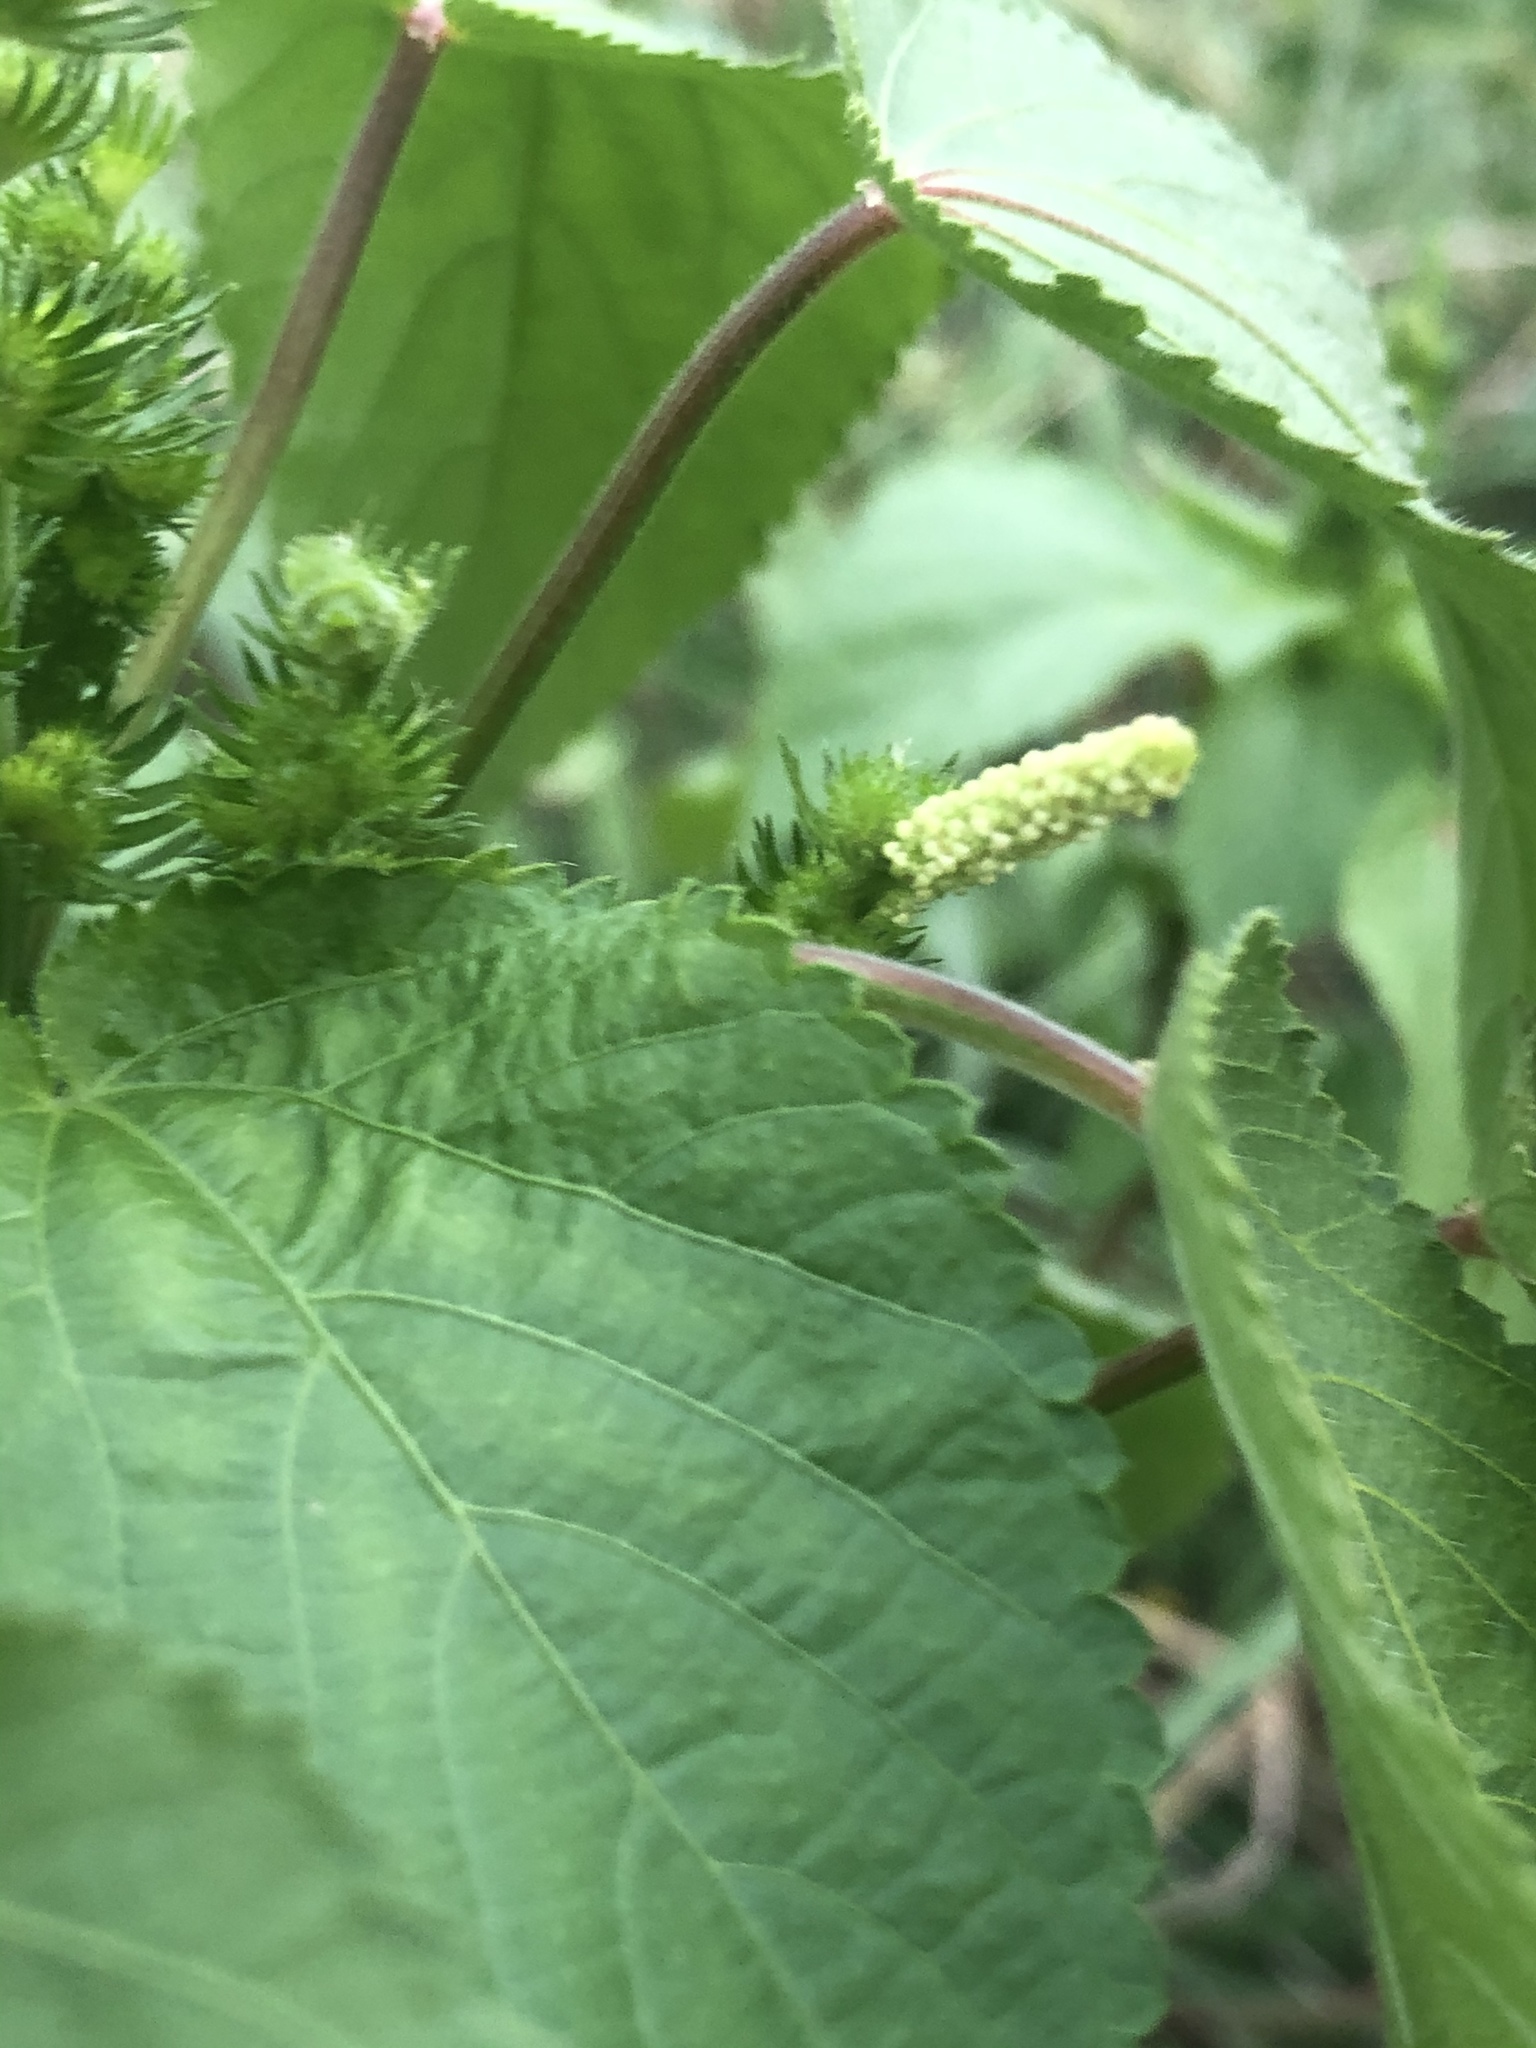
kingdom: Plantae
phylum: Tracheophyta
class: Magnoliopsida
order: Malpighiales
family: Euphorbiaceae
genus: Acalypha
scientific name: Acalypha ostryifolia
